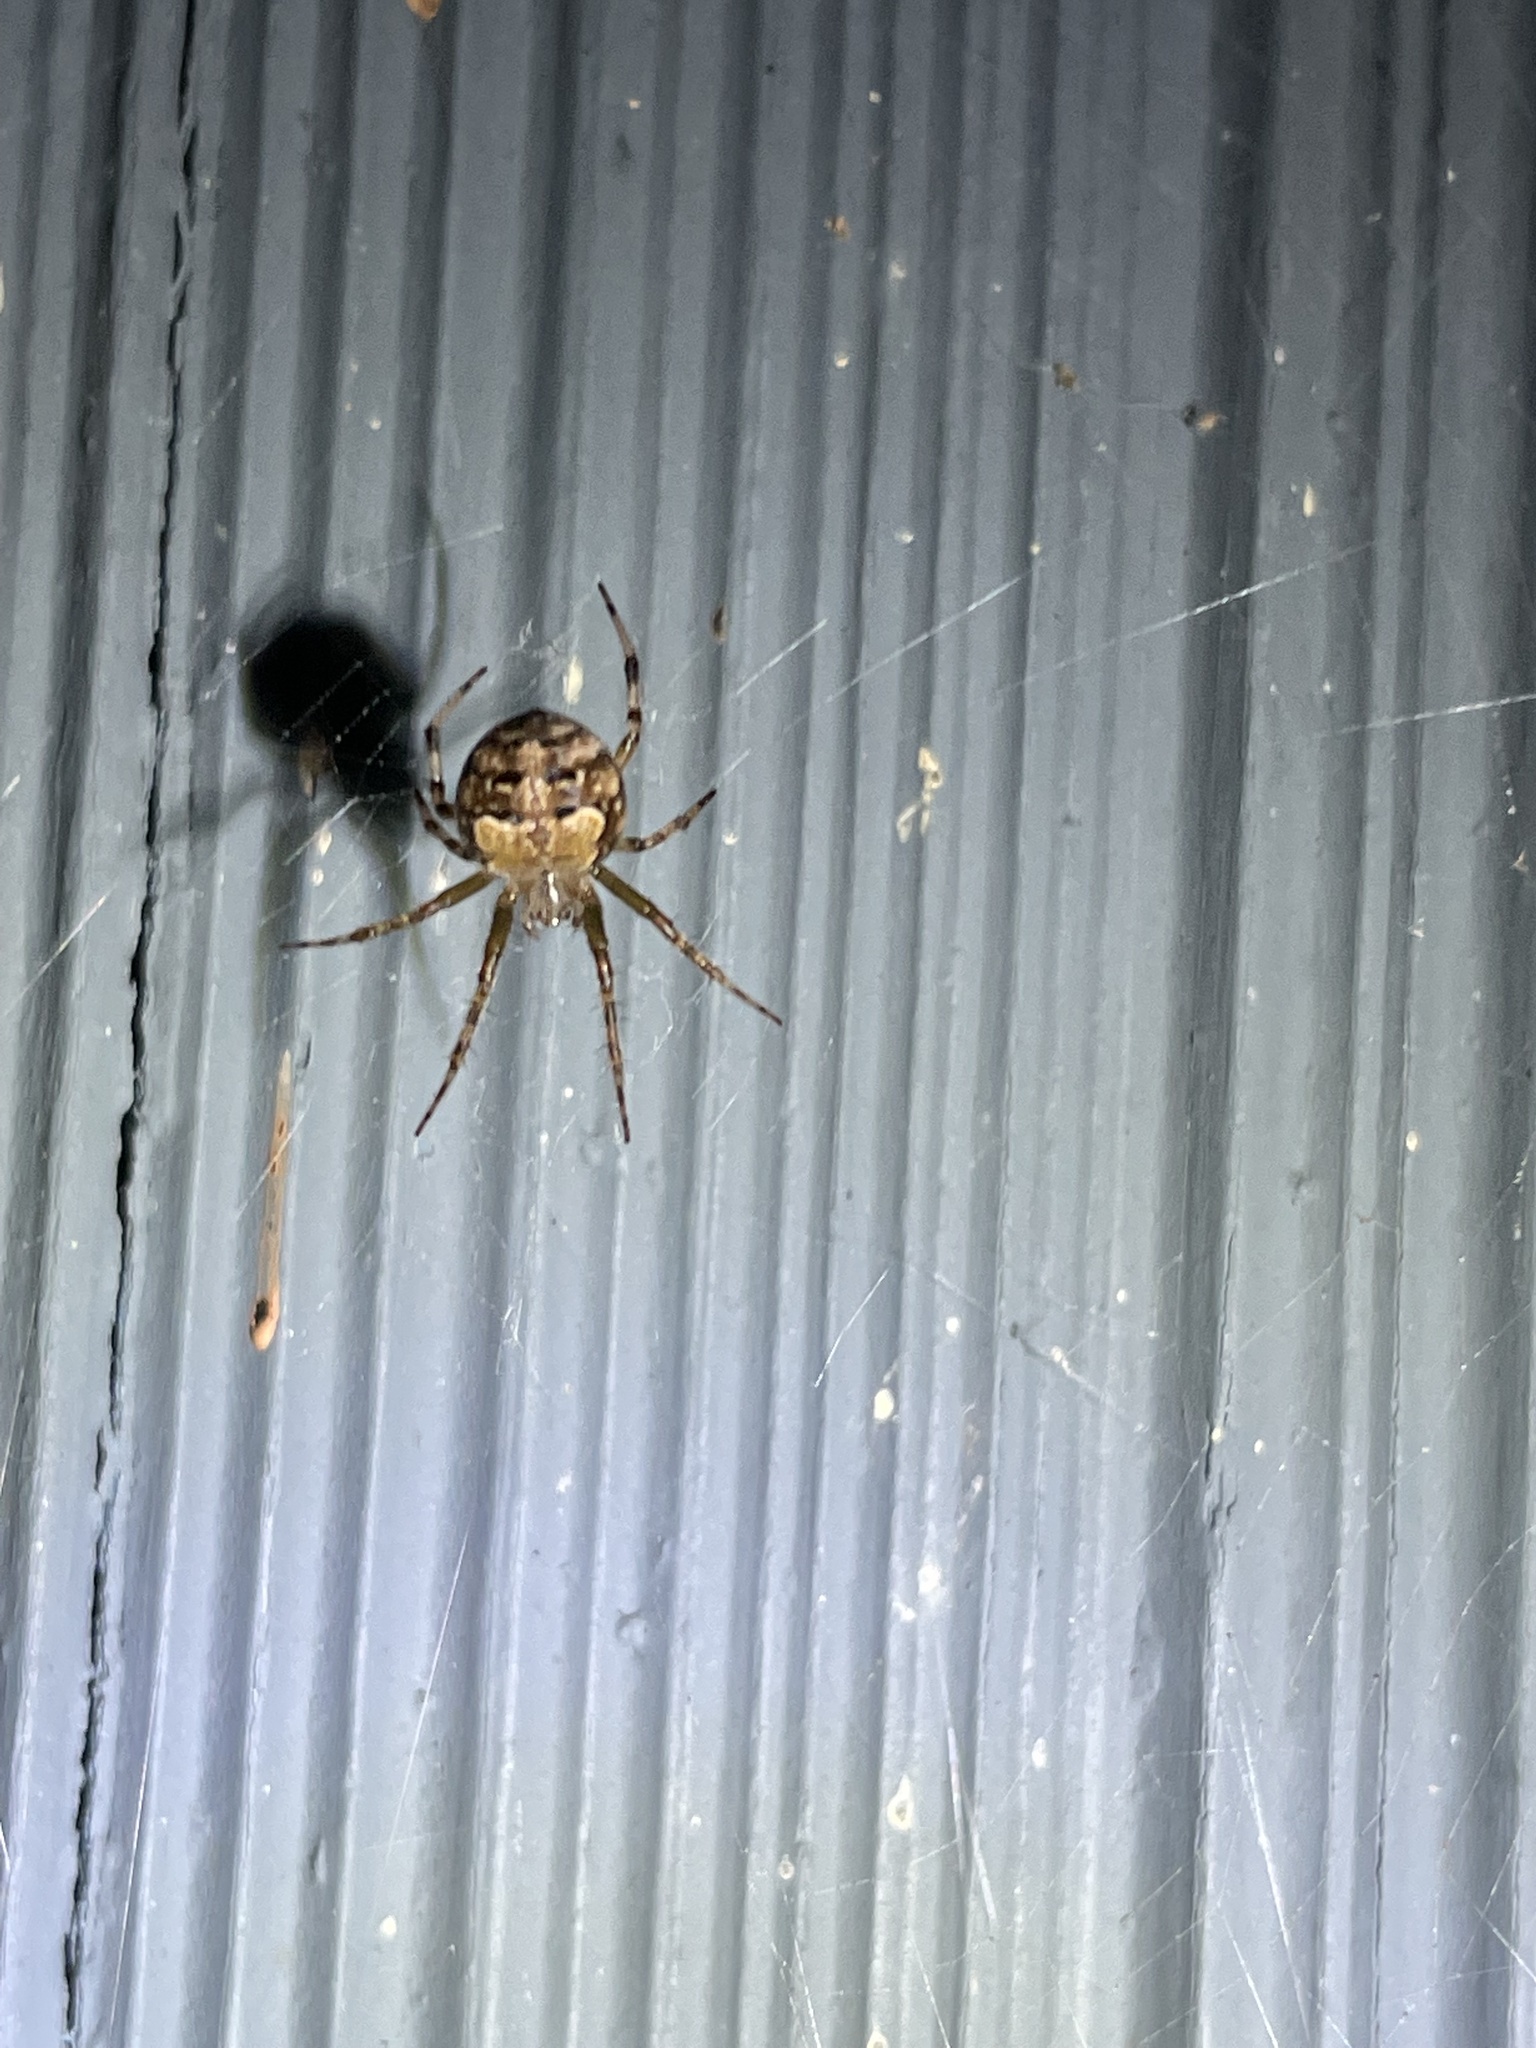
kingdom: Animalia
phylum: Arthropoda
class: Arachnida
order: Araneae
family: Araneidae
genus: Araneus
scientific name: Araneus pegnia
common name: Orb weavers
